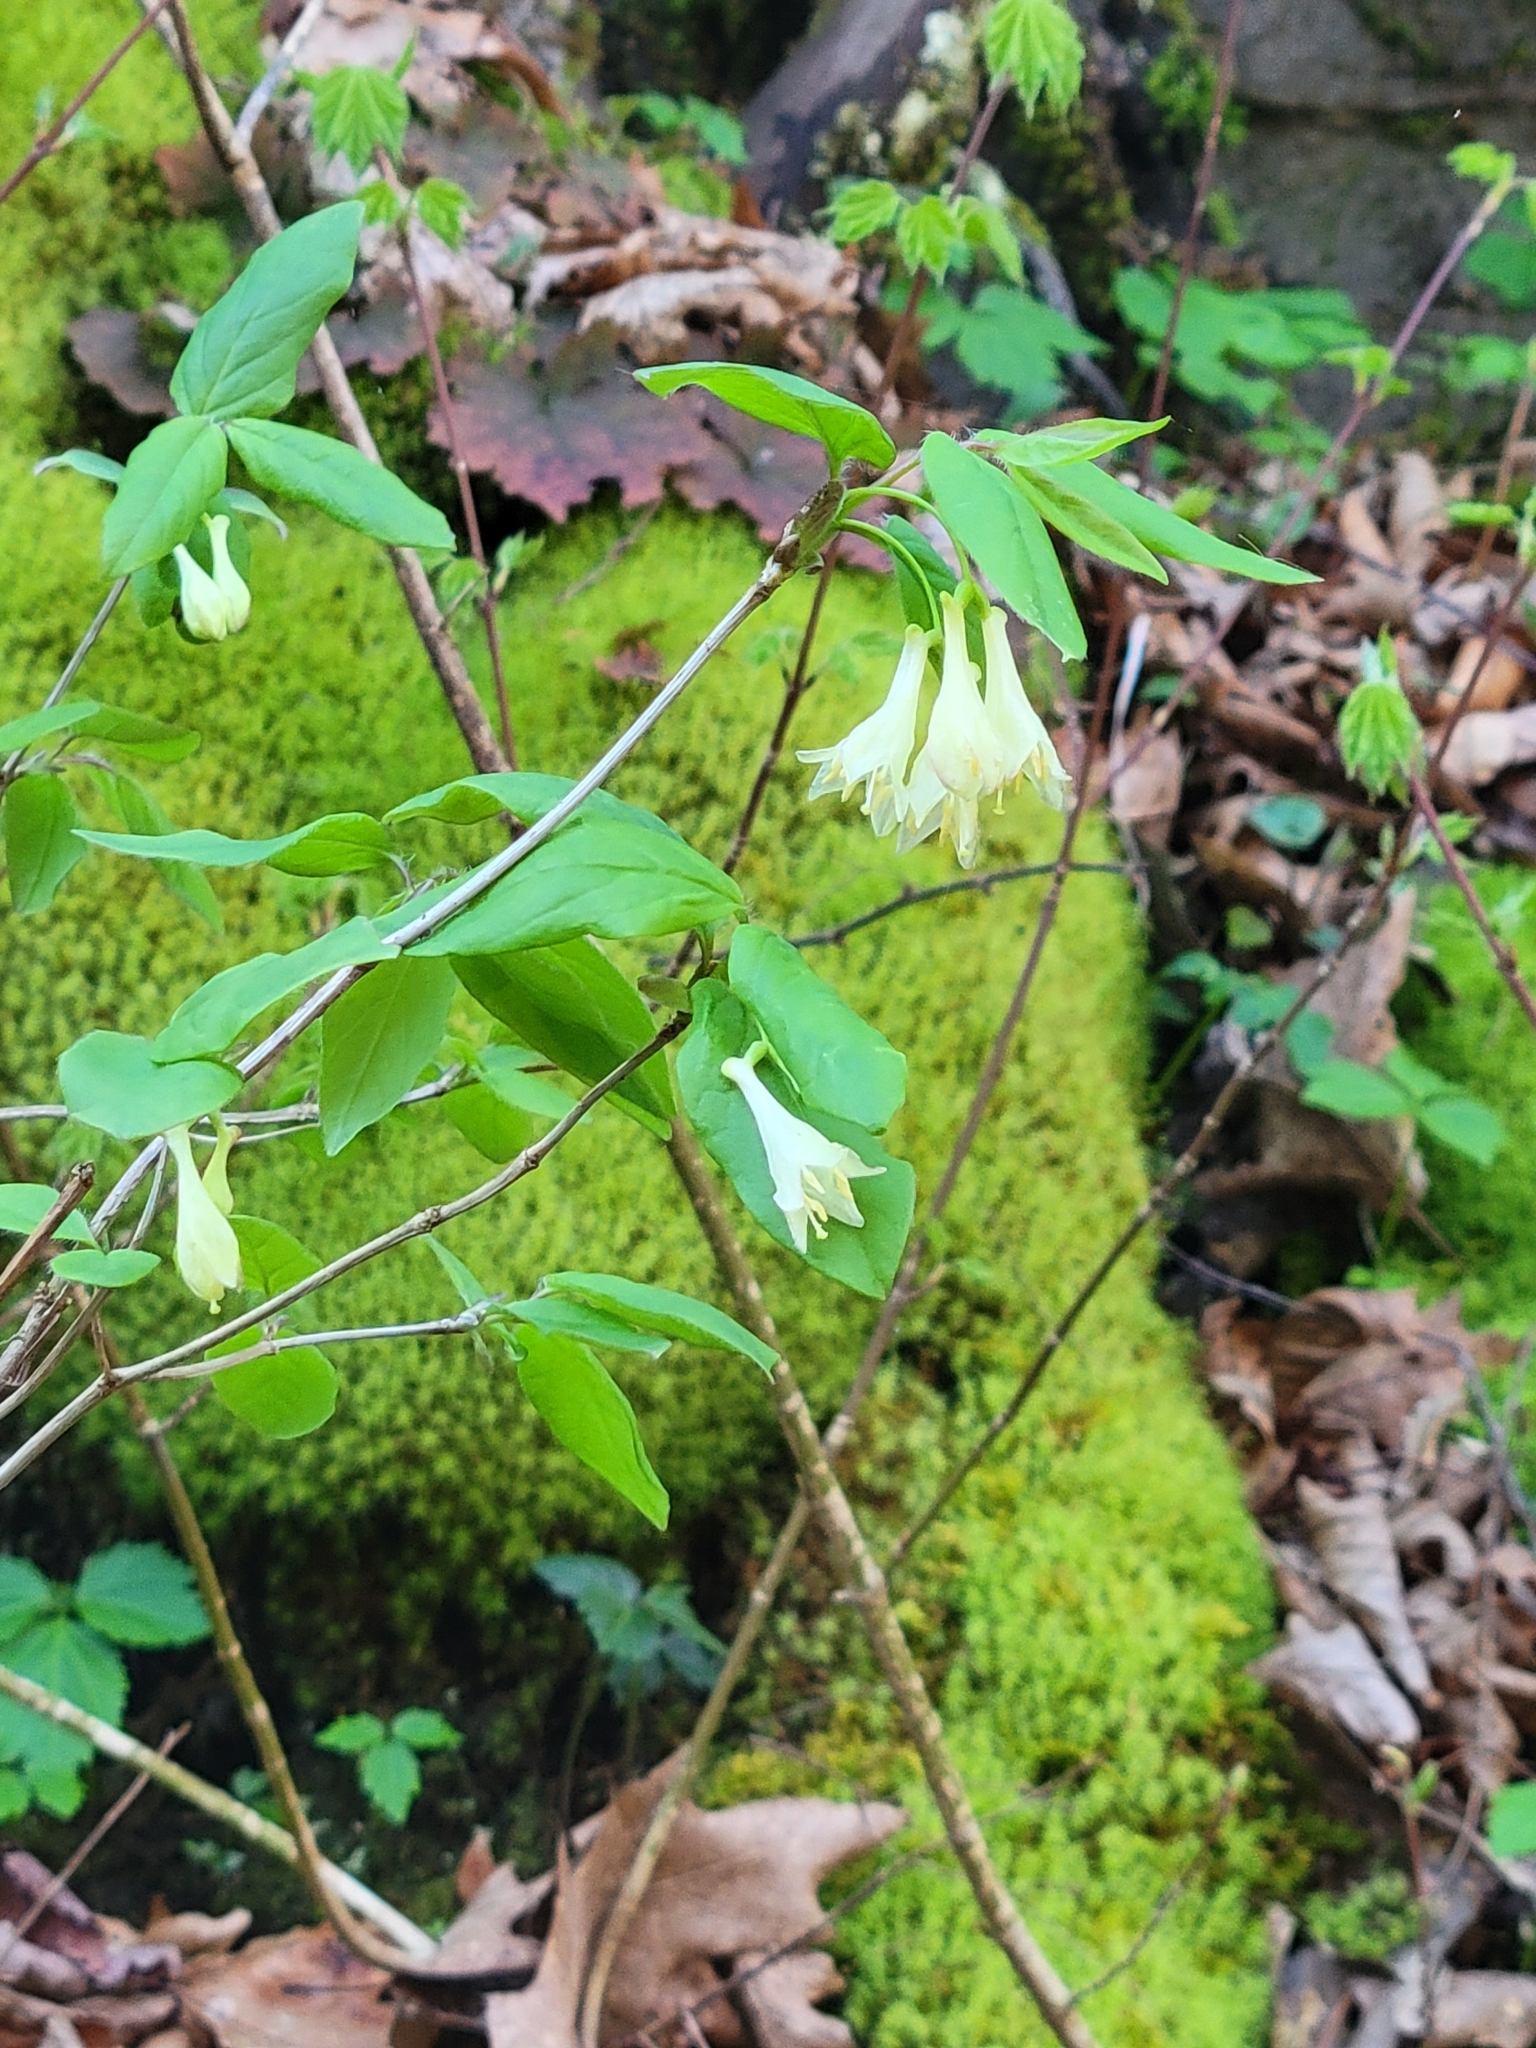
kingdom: Plantae
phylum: Tracheophyta
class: Magnoliopsida
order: Dipsacales
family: Caprifoliaceae
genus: Lonicera
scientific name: Lonicera canadensis
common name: American fly-honeysuckle
